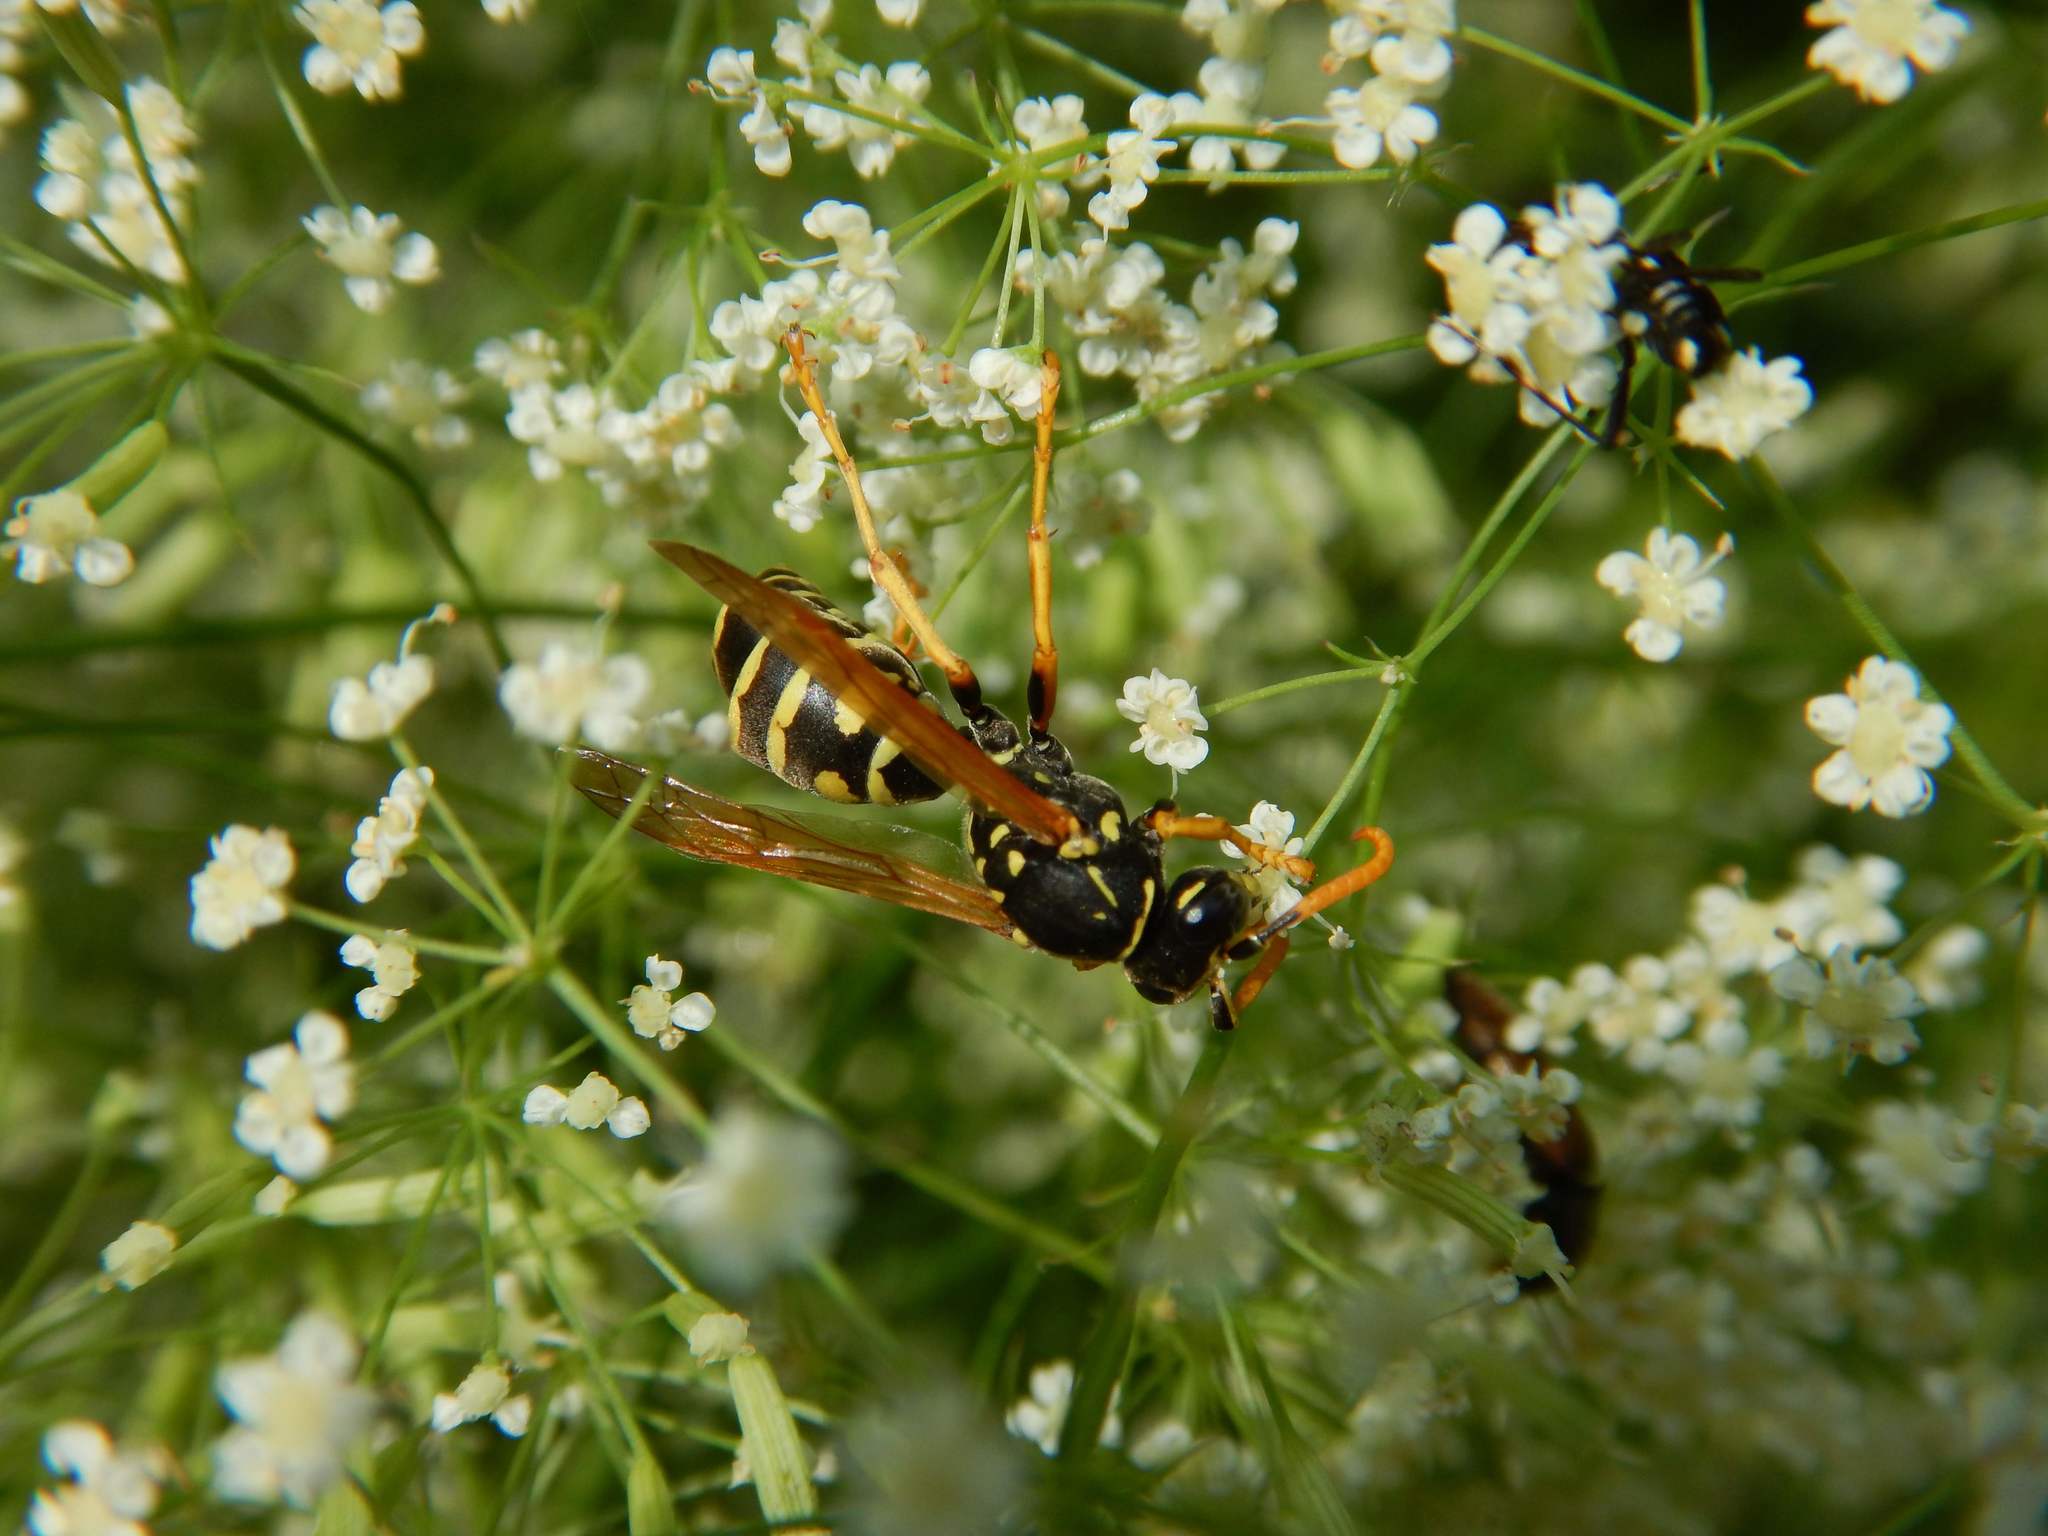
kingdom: Animalia
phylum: Arthropoda
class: Insecta
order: Hymenoptera
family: Eumenidae
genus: Polistes
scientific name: Polistes dominula
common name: Paper wasp
